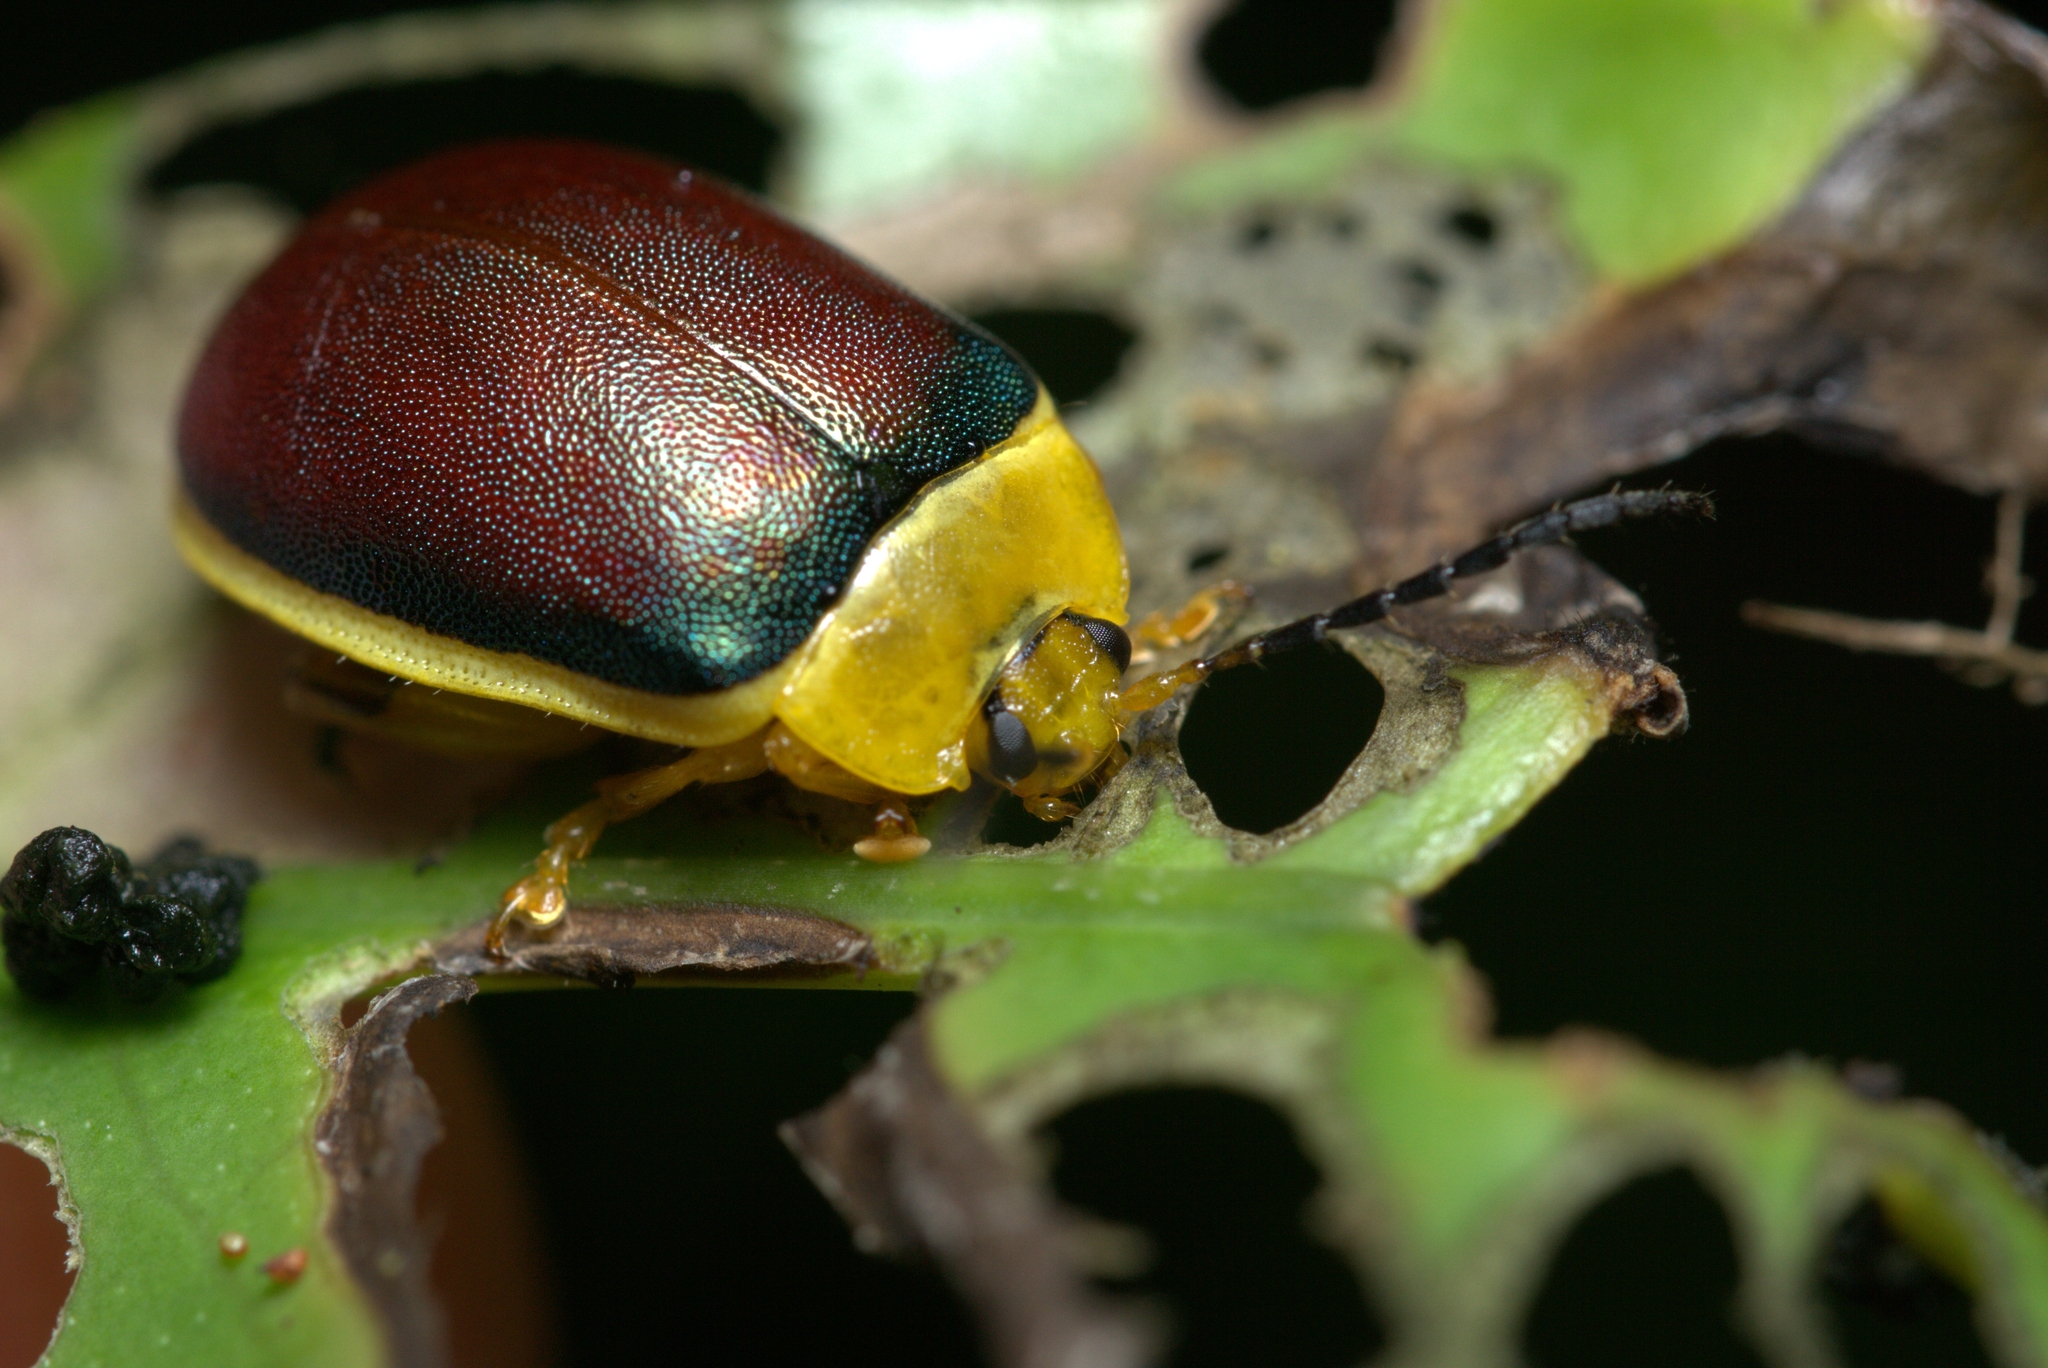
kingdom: Animalia
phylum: Arthropoda
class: Insecta
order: Coleoptera
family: Chrysomelidae
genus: Paranaita
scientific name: Paranaita
